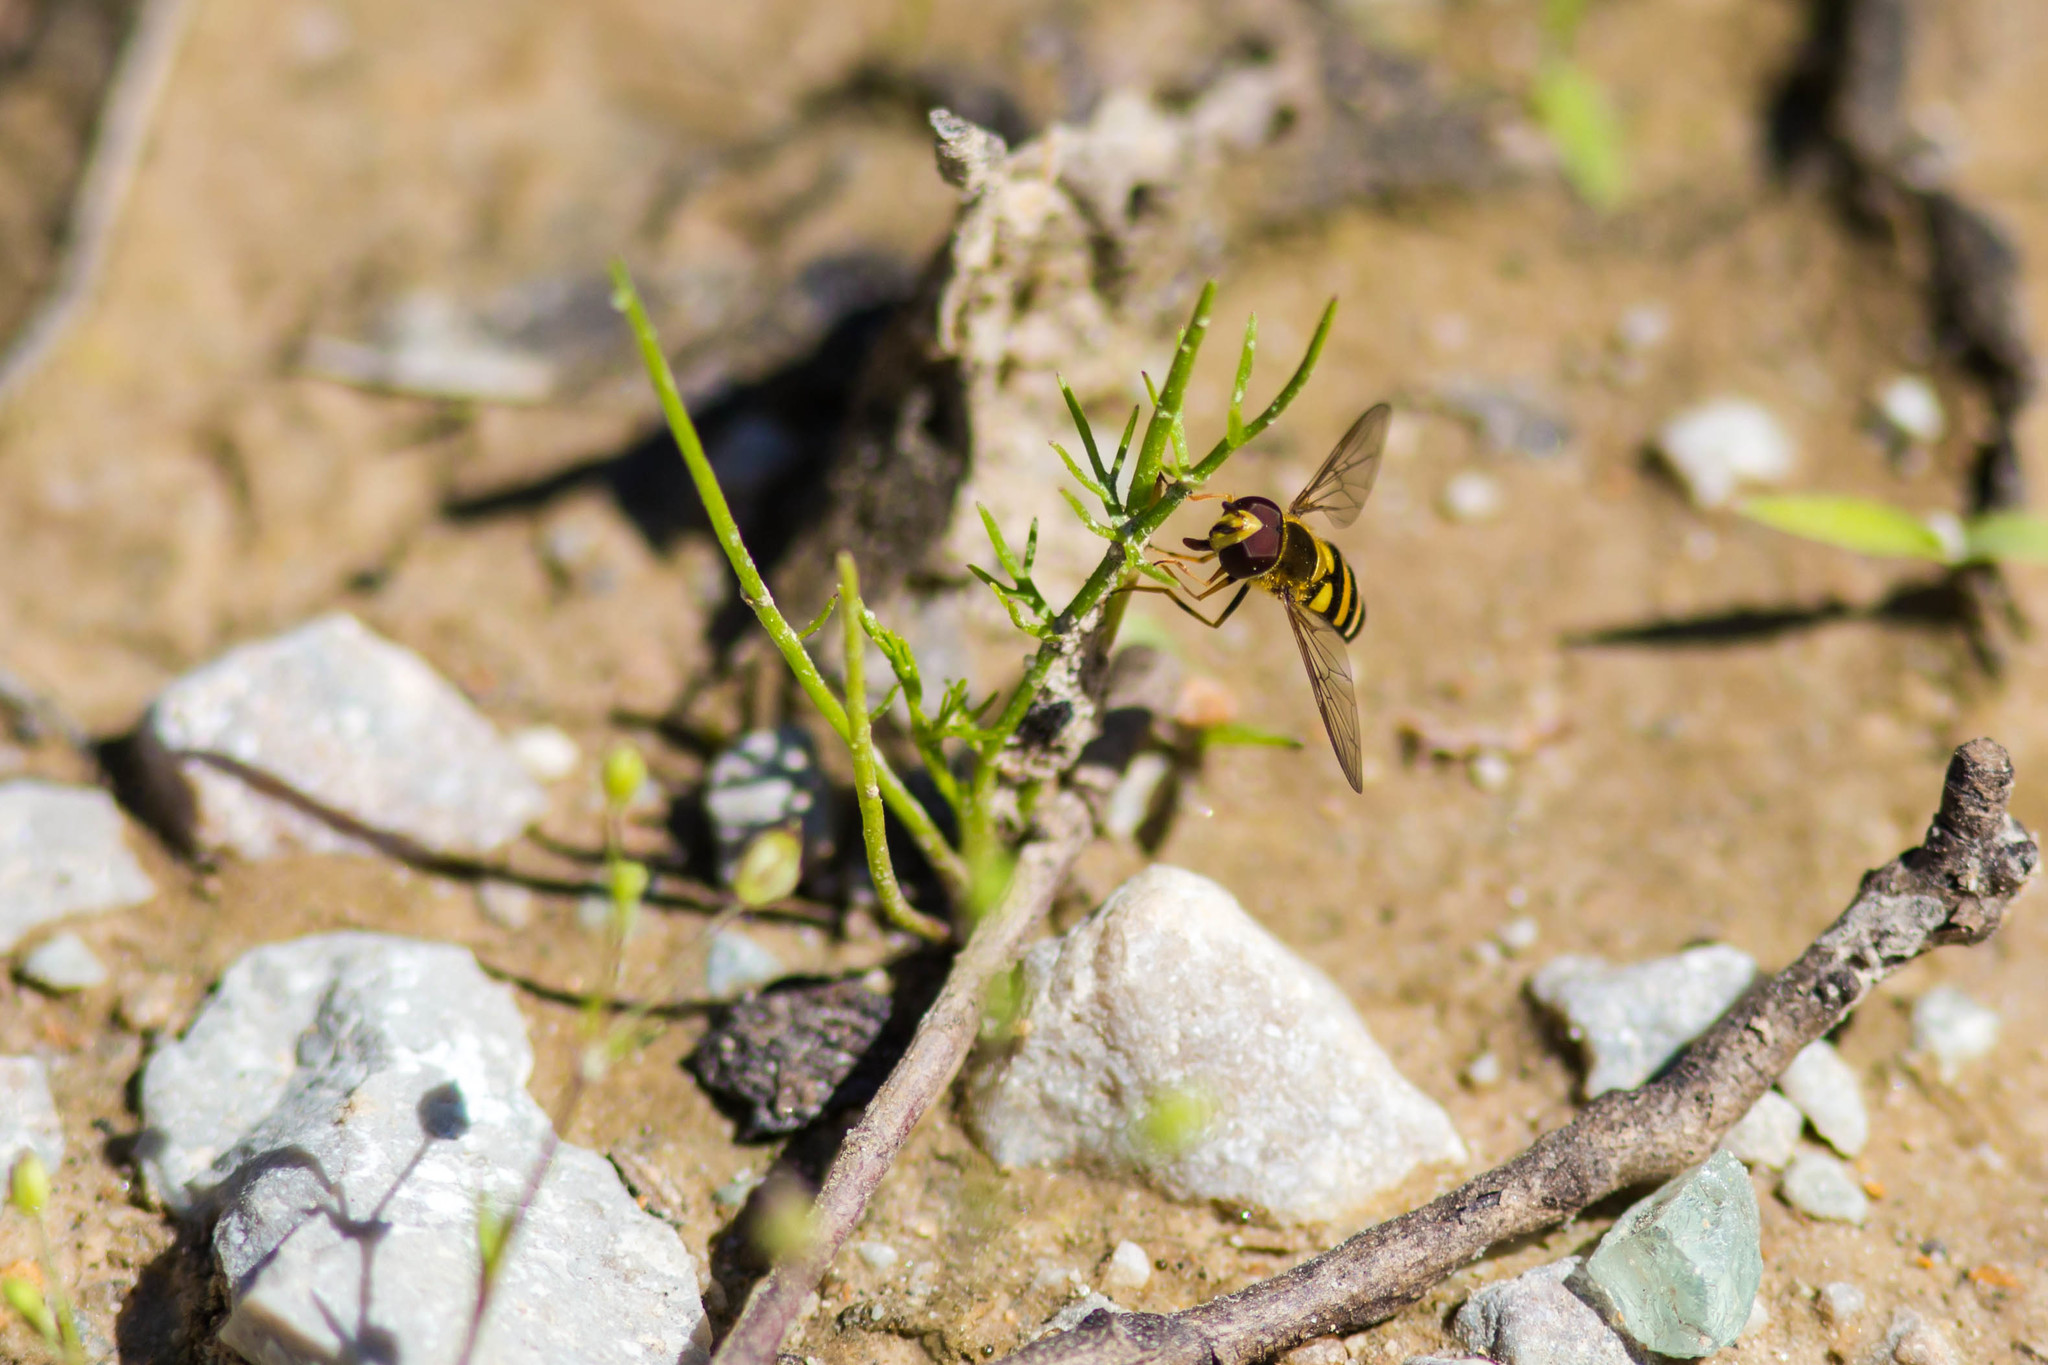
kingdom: Animalia
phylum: Arthropoda
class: Insecta
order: Diptera
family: Syrphidae
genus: Eupeodes
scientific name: Eupeodes
